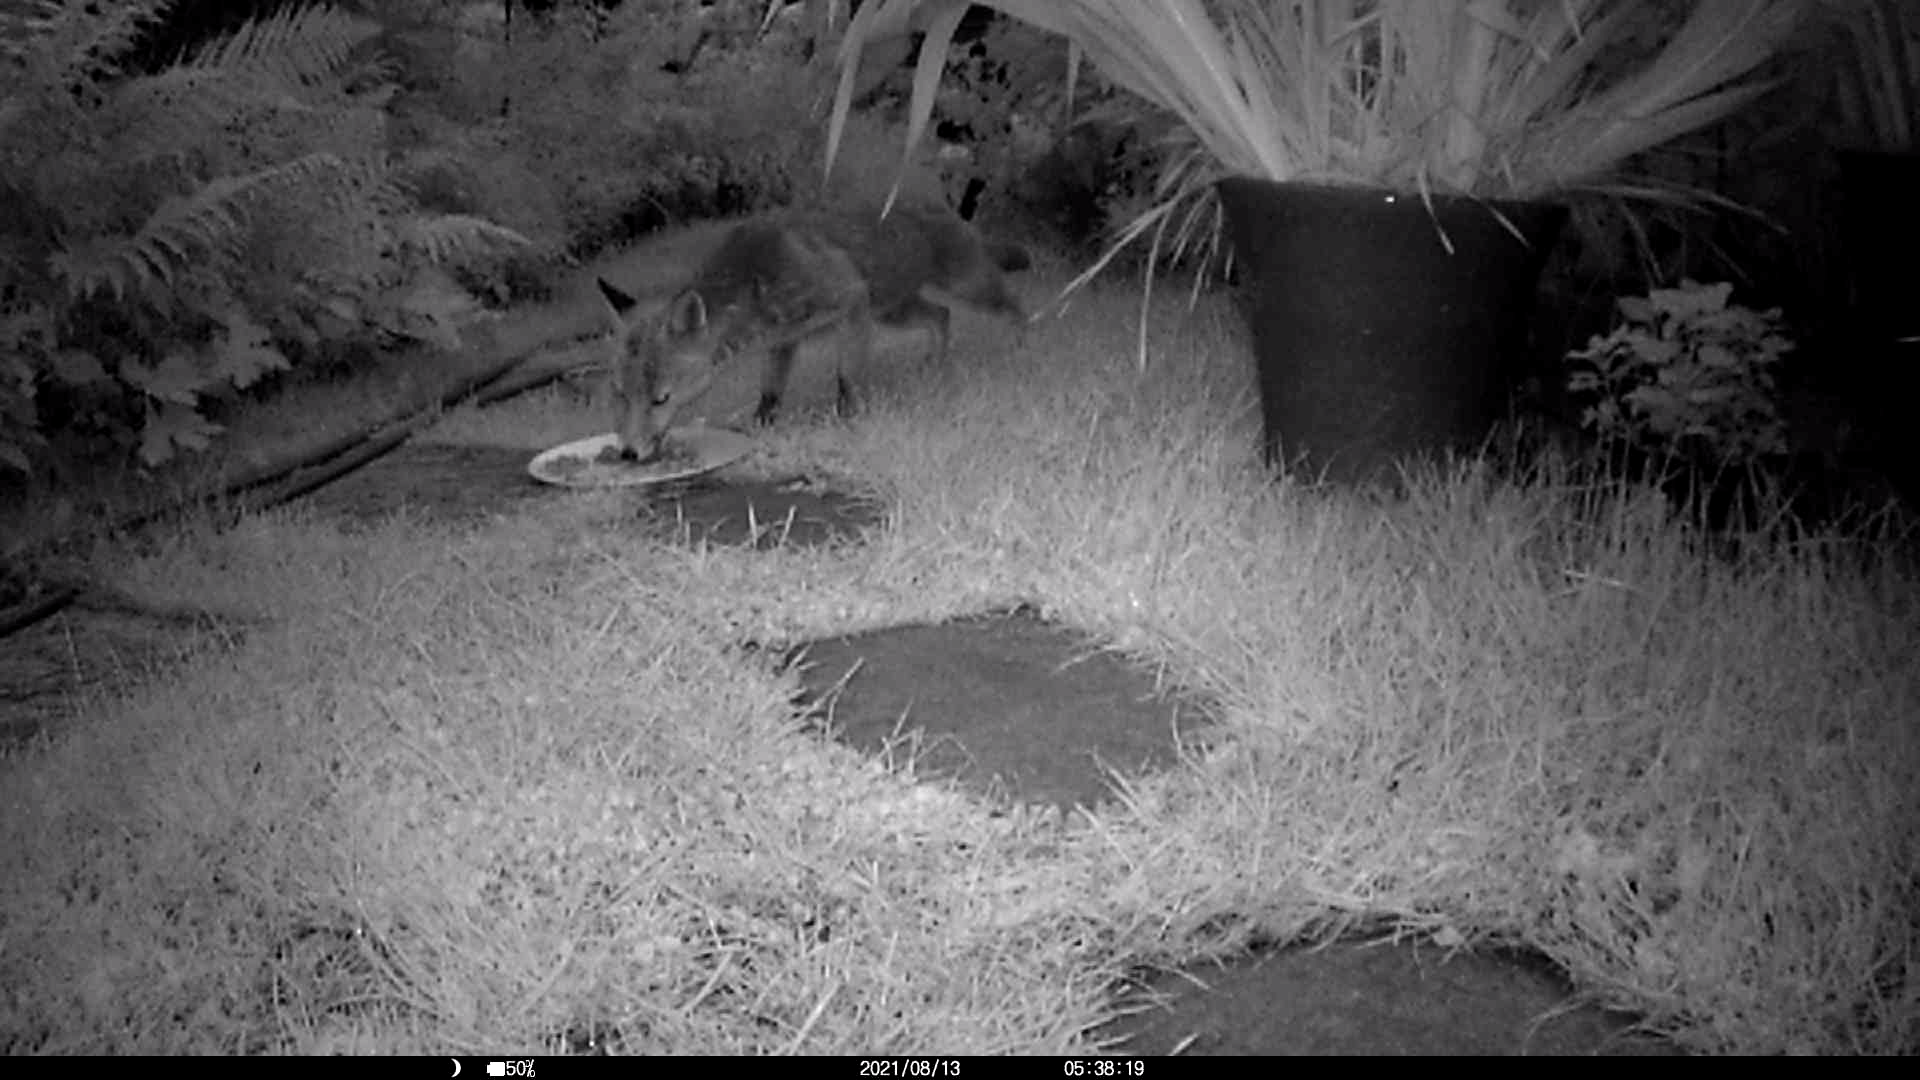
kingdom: Animalia
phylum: Chordata
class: Mammalia
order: Carnivora
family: Canidae
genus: Vulpes
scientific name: Vulpes vulpes
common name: Red fox
